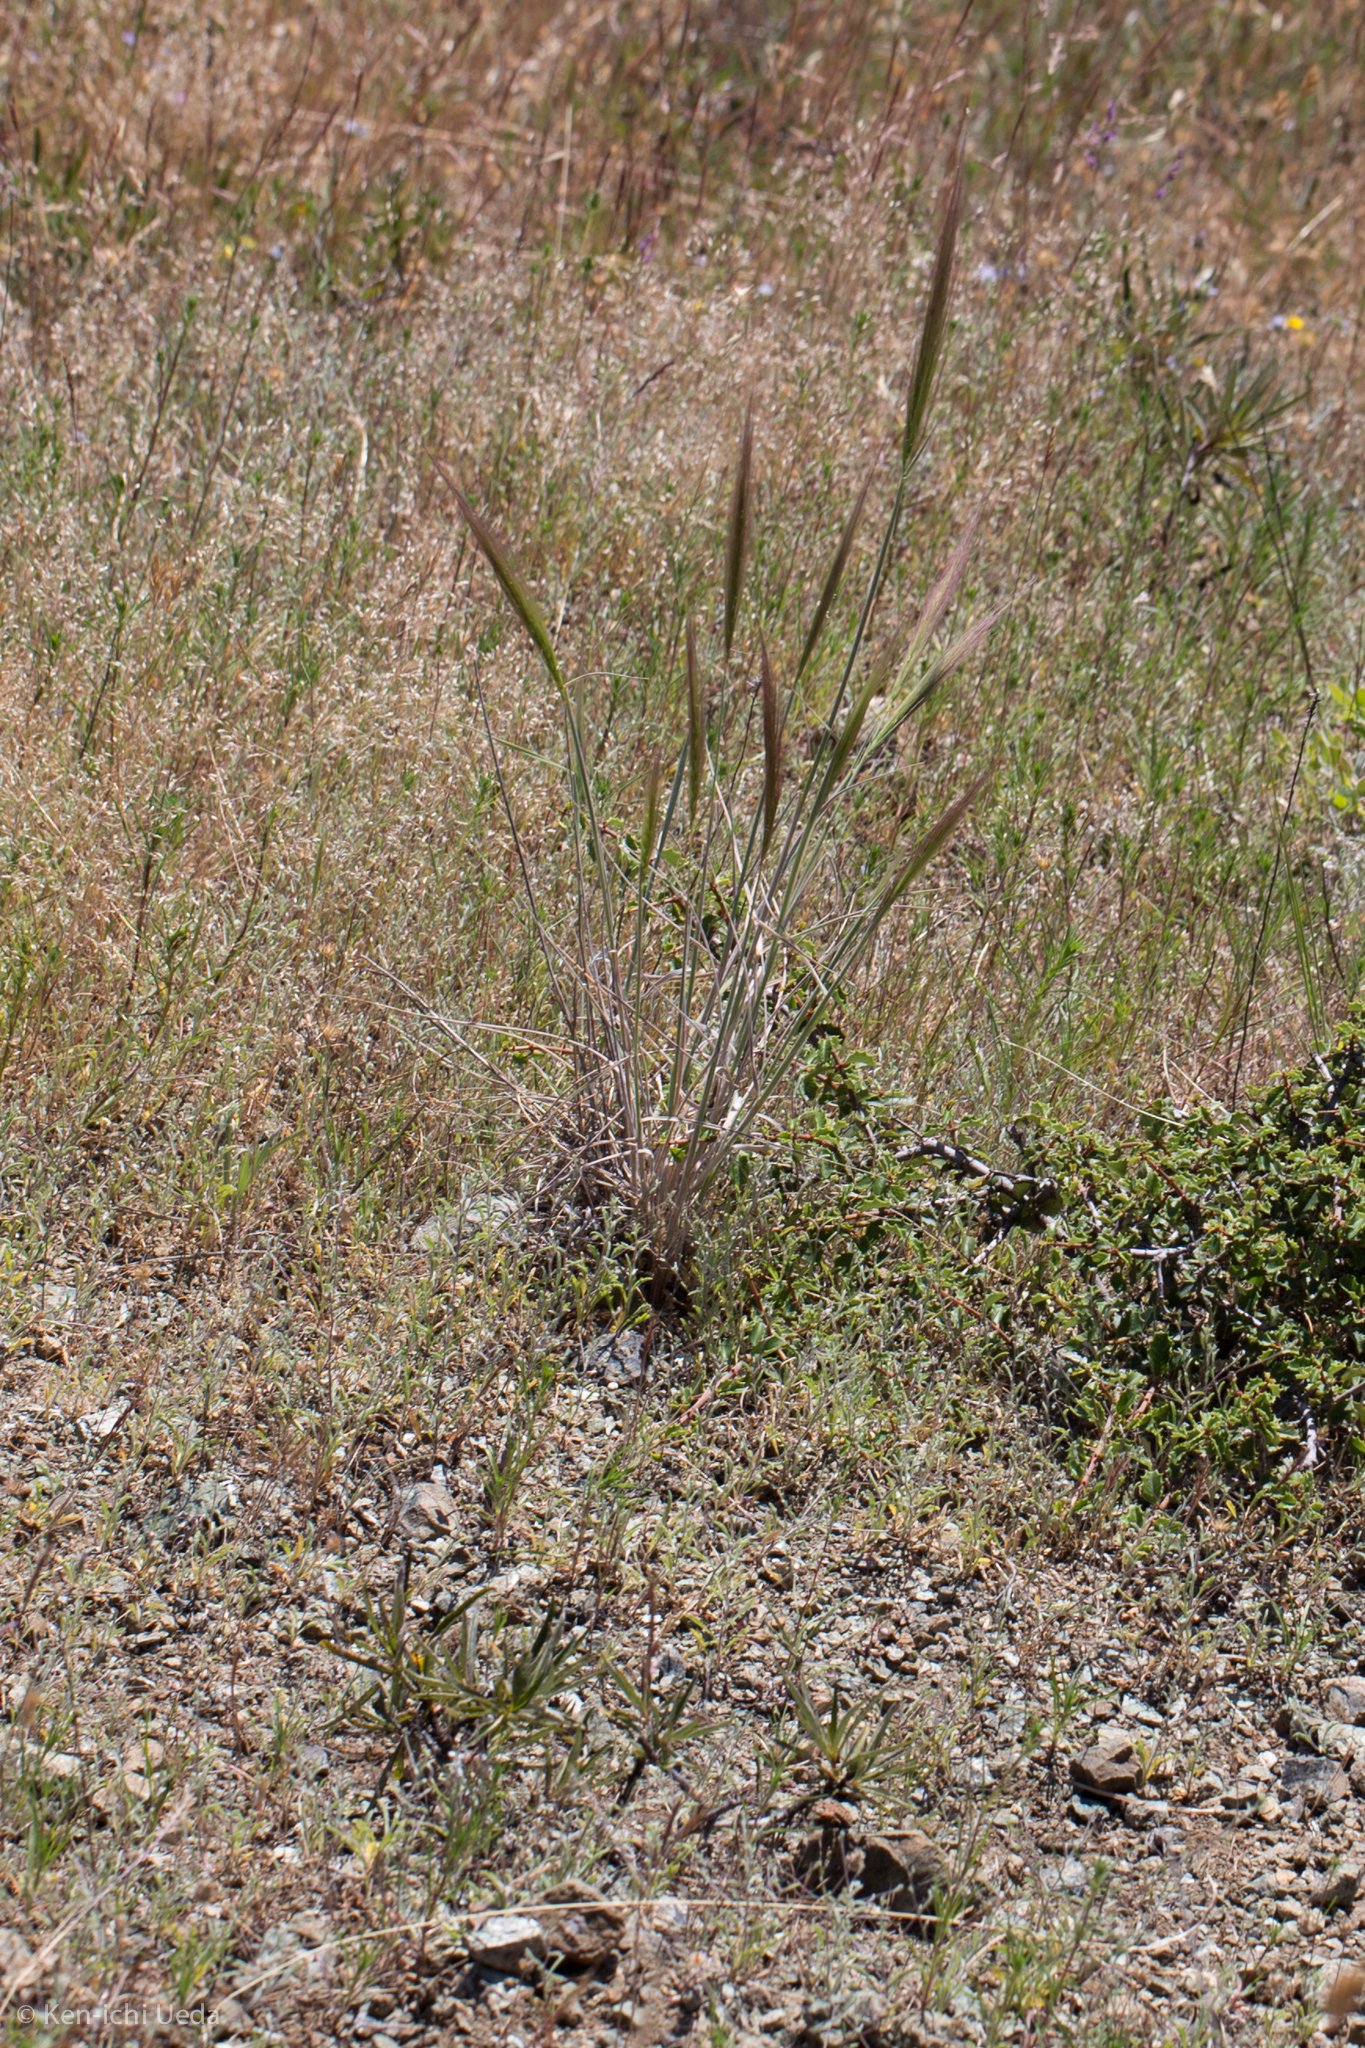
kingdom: Plantae
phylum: Tracheophyta
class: Liliopsida
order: Poales
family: Poaceae
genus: Elymus
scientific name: Elymus multisetus
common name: Big squirreltail
